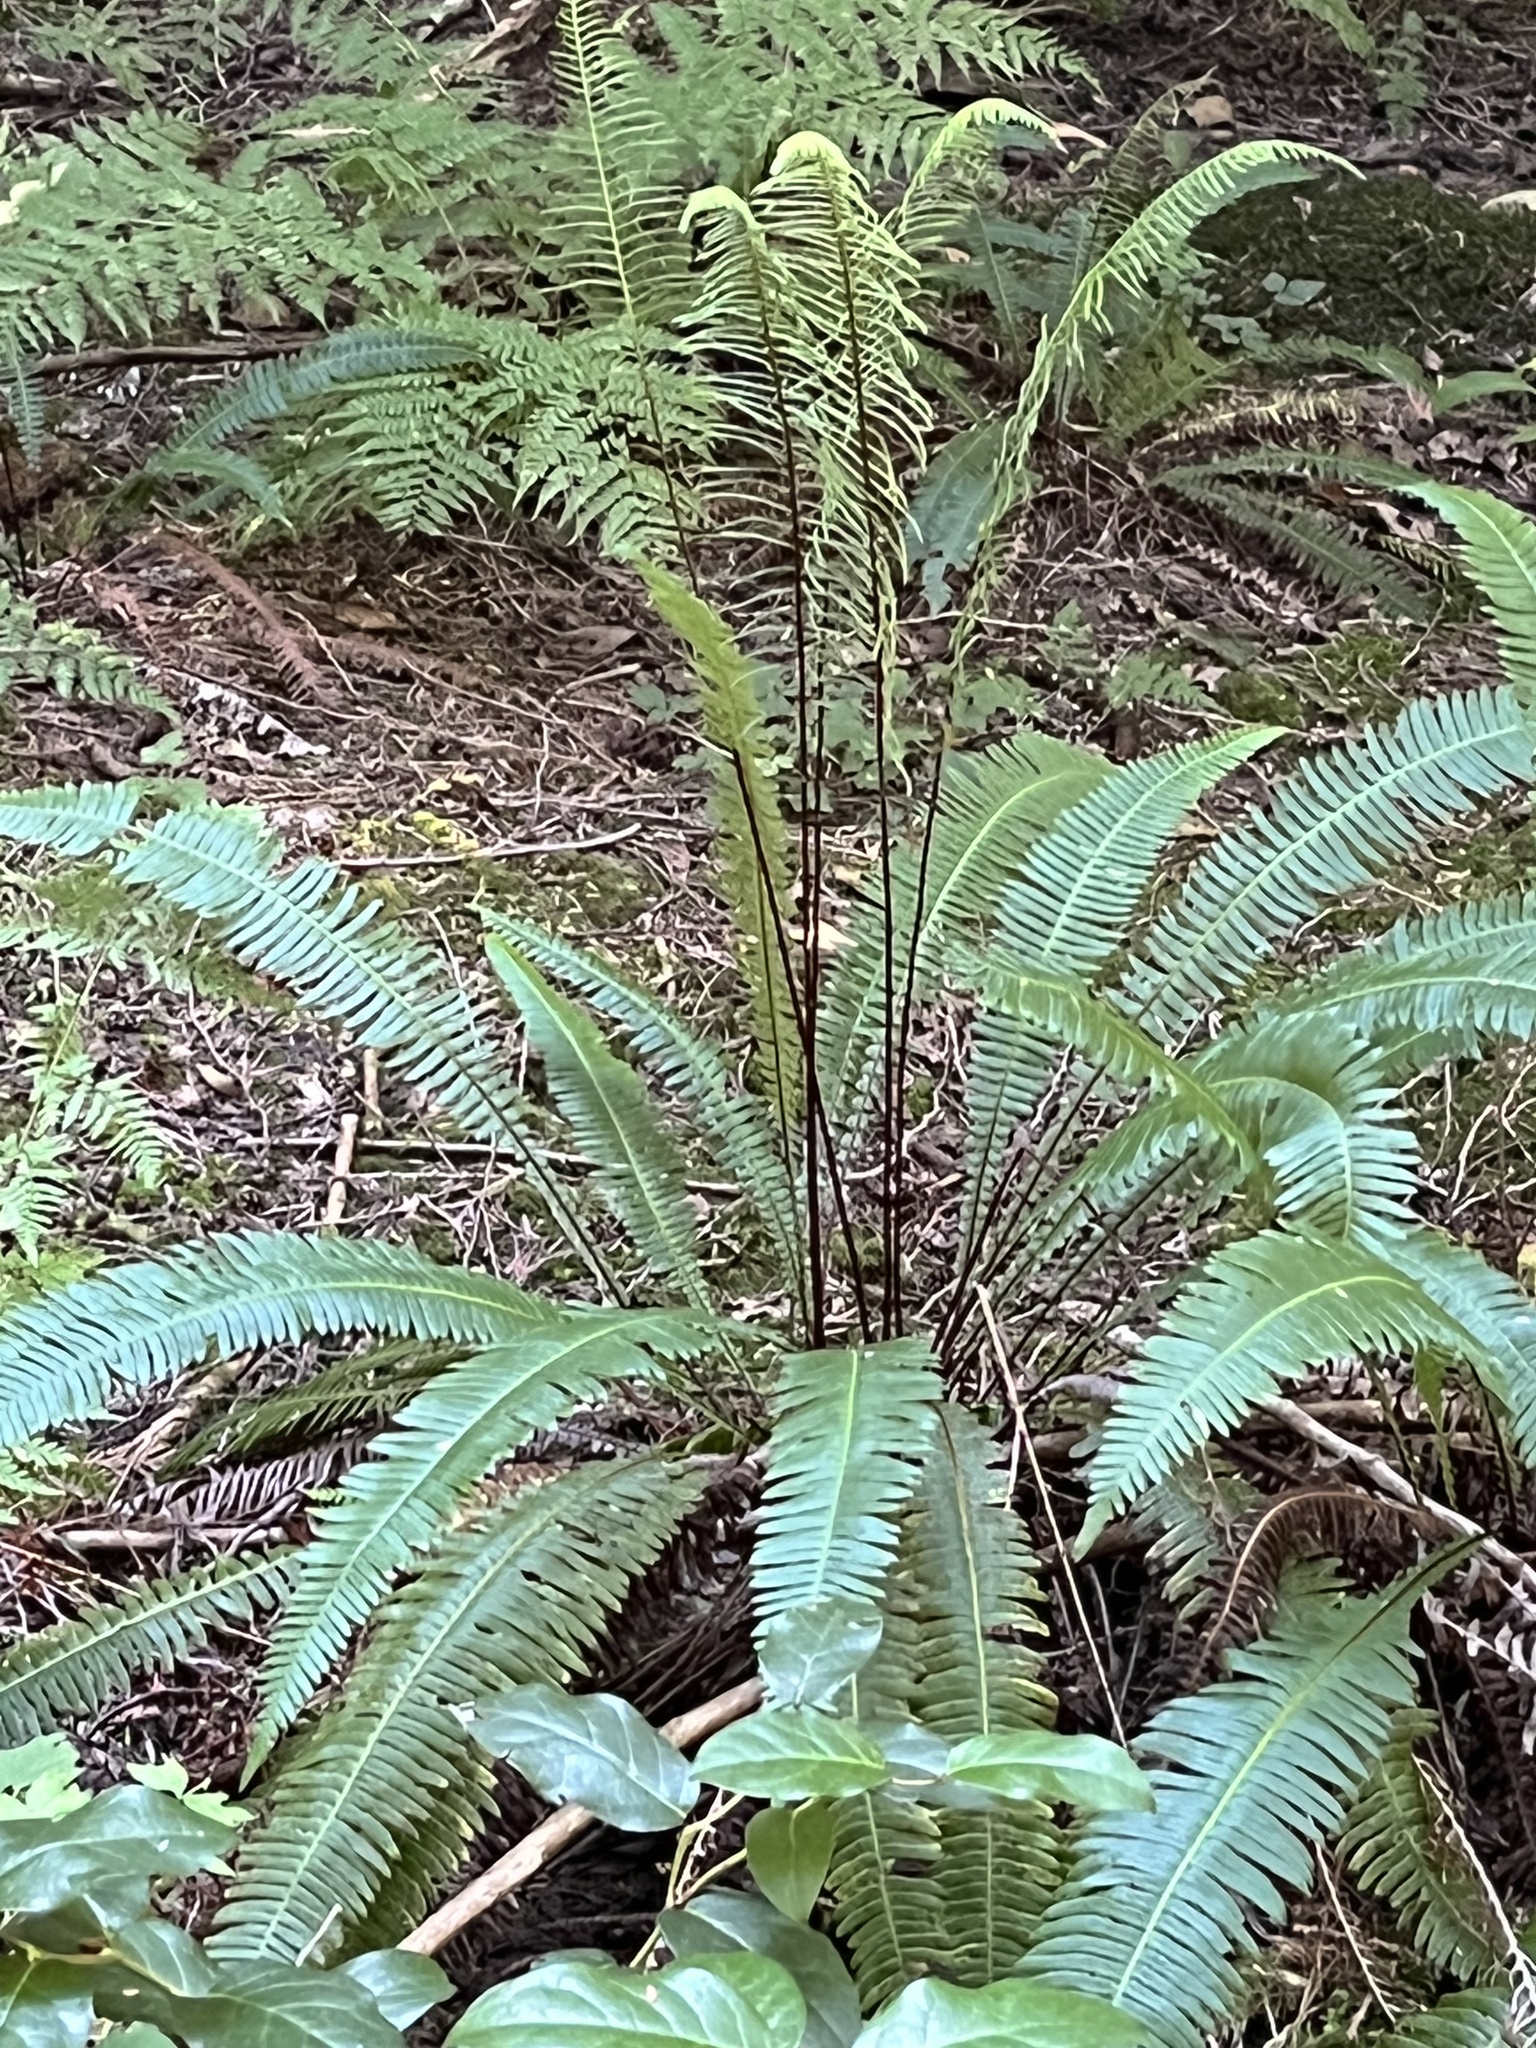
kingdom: Plantae
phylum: Tracheophyta
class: Polypodiopsida
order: Polypodiales
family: Blechnaceae
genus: Struthiopteris
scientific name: Struthiopteris spicant
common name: Deer fern
